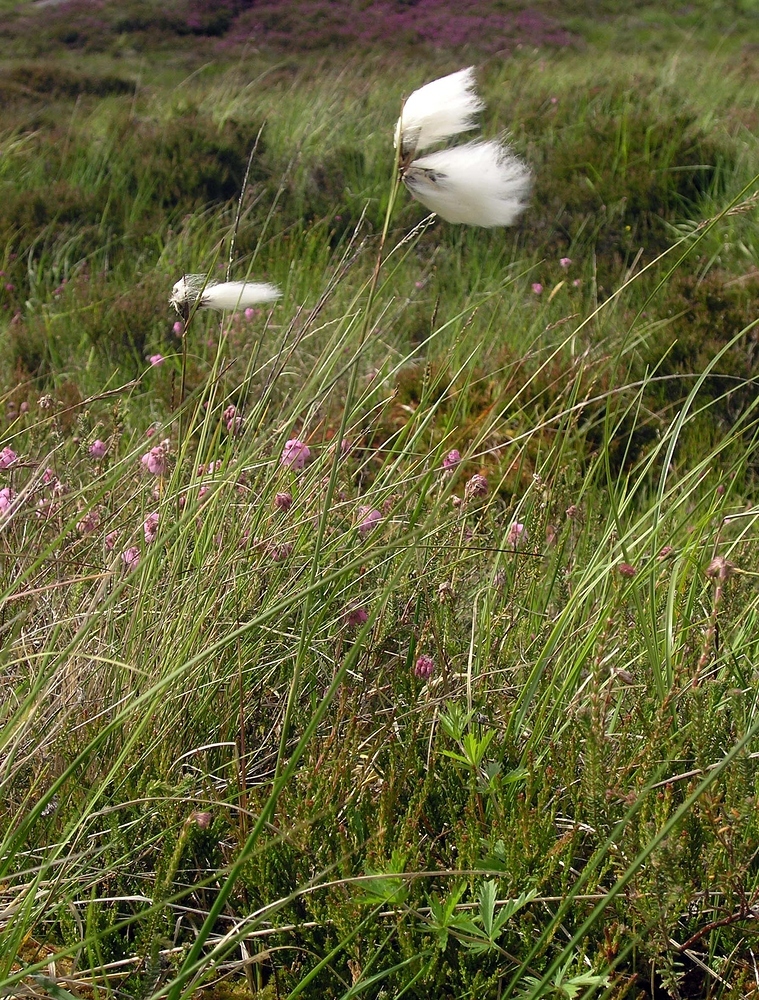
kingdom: Plantae
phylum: Tracheophyta
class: Liliopsida
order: Poales
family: Cyperaceae
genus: Eriophorum
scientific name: Eriophorum angustifolium
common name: Common cottongrass
